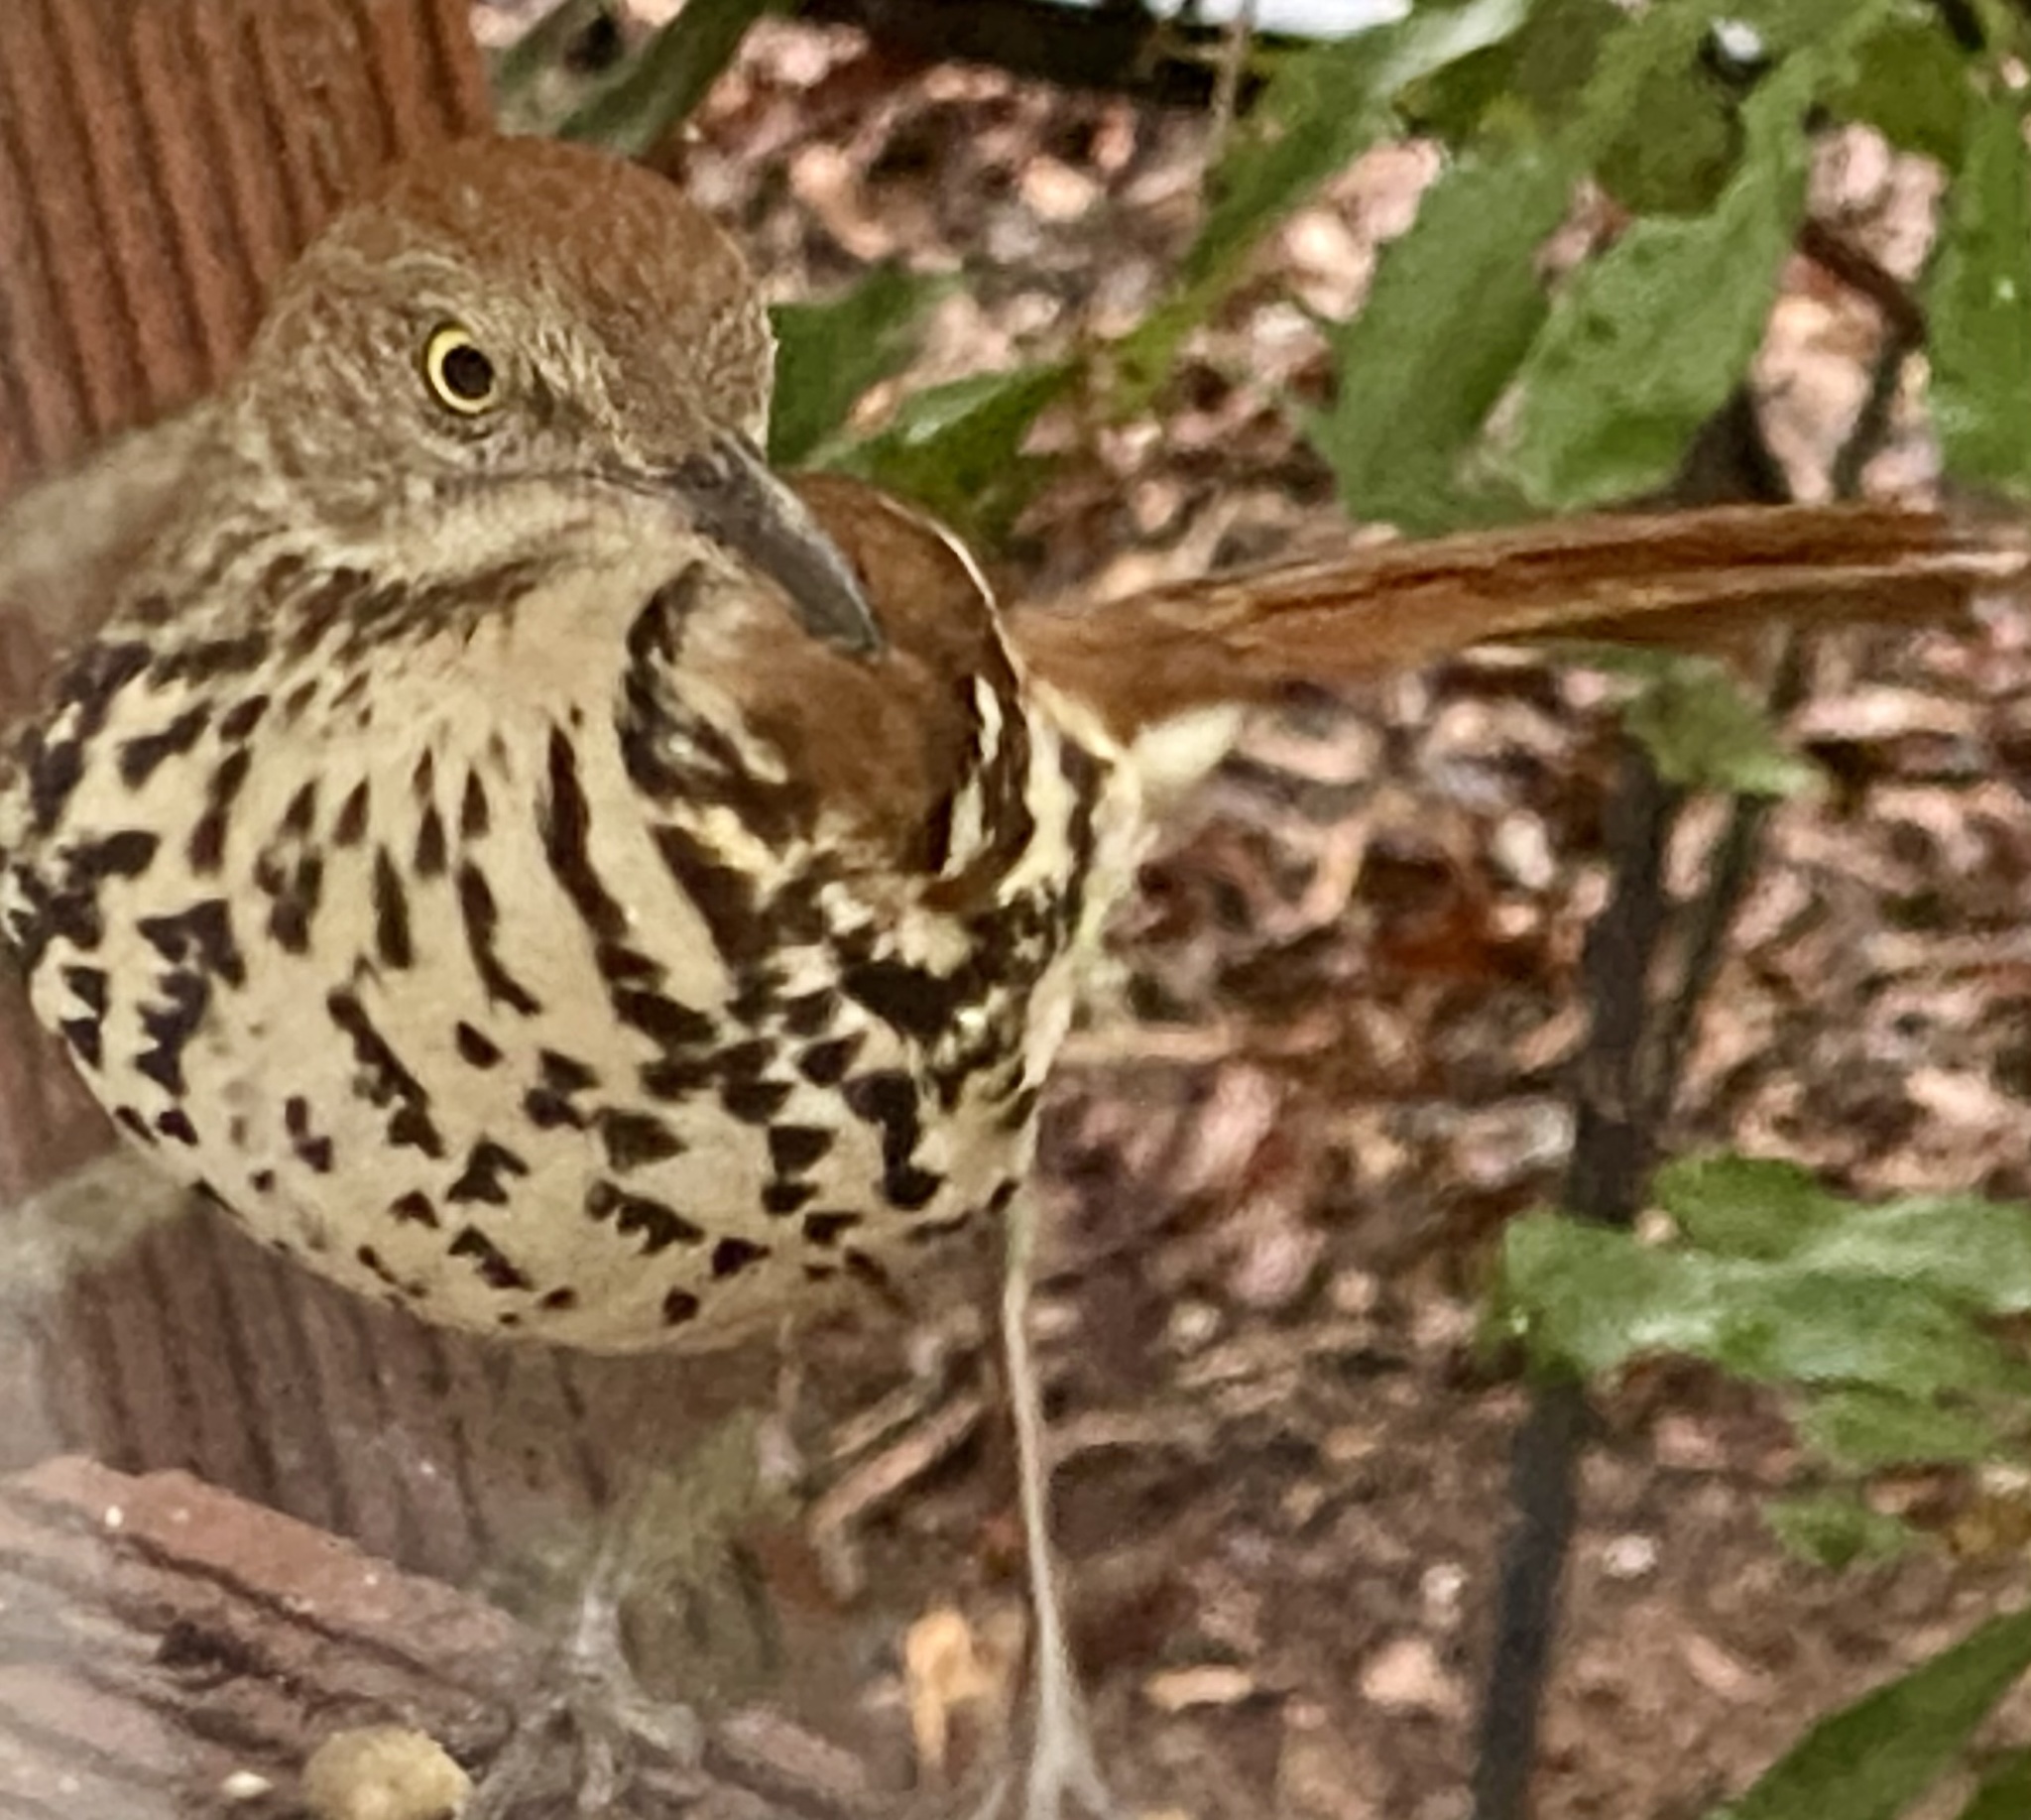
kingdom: Animalia
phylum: Chordata
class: Aves
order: Passeriformes
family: Mimidae
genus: Toxostoma
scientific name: Toxostoma rufum
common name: Brown thrasher
